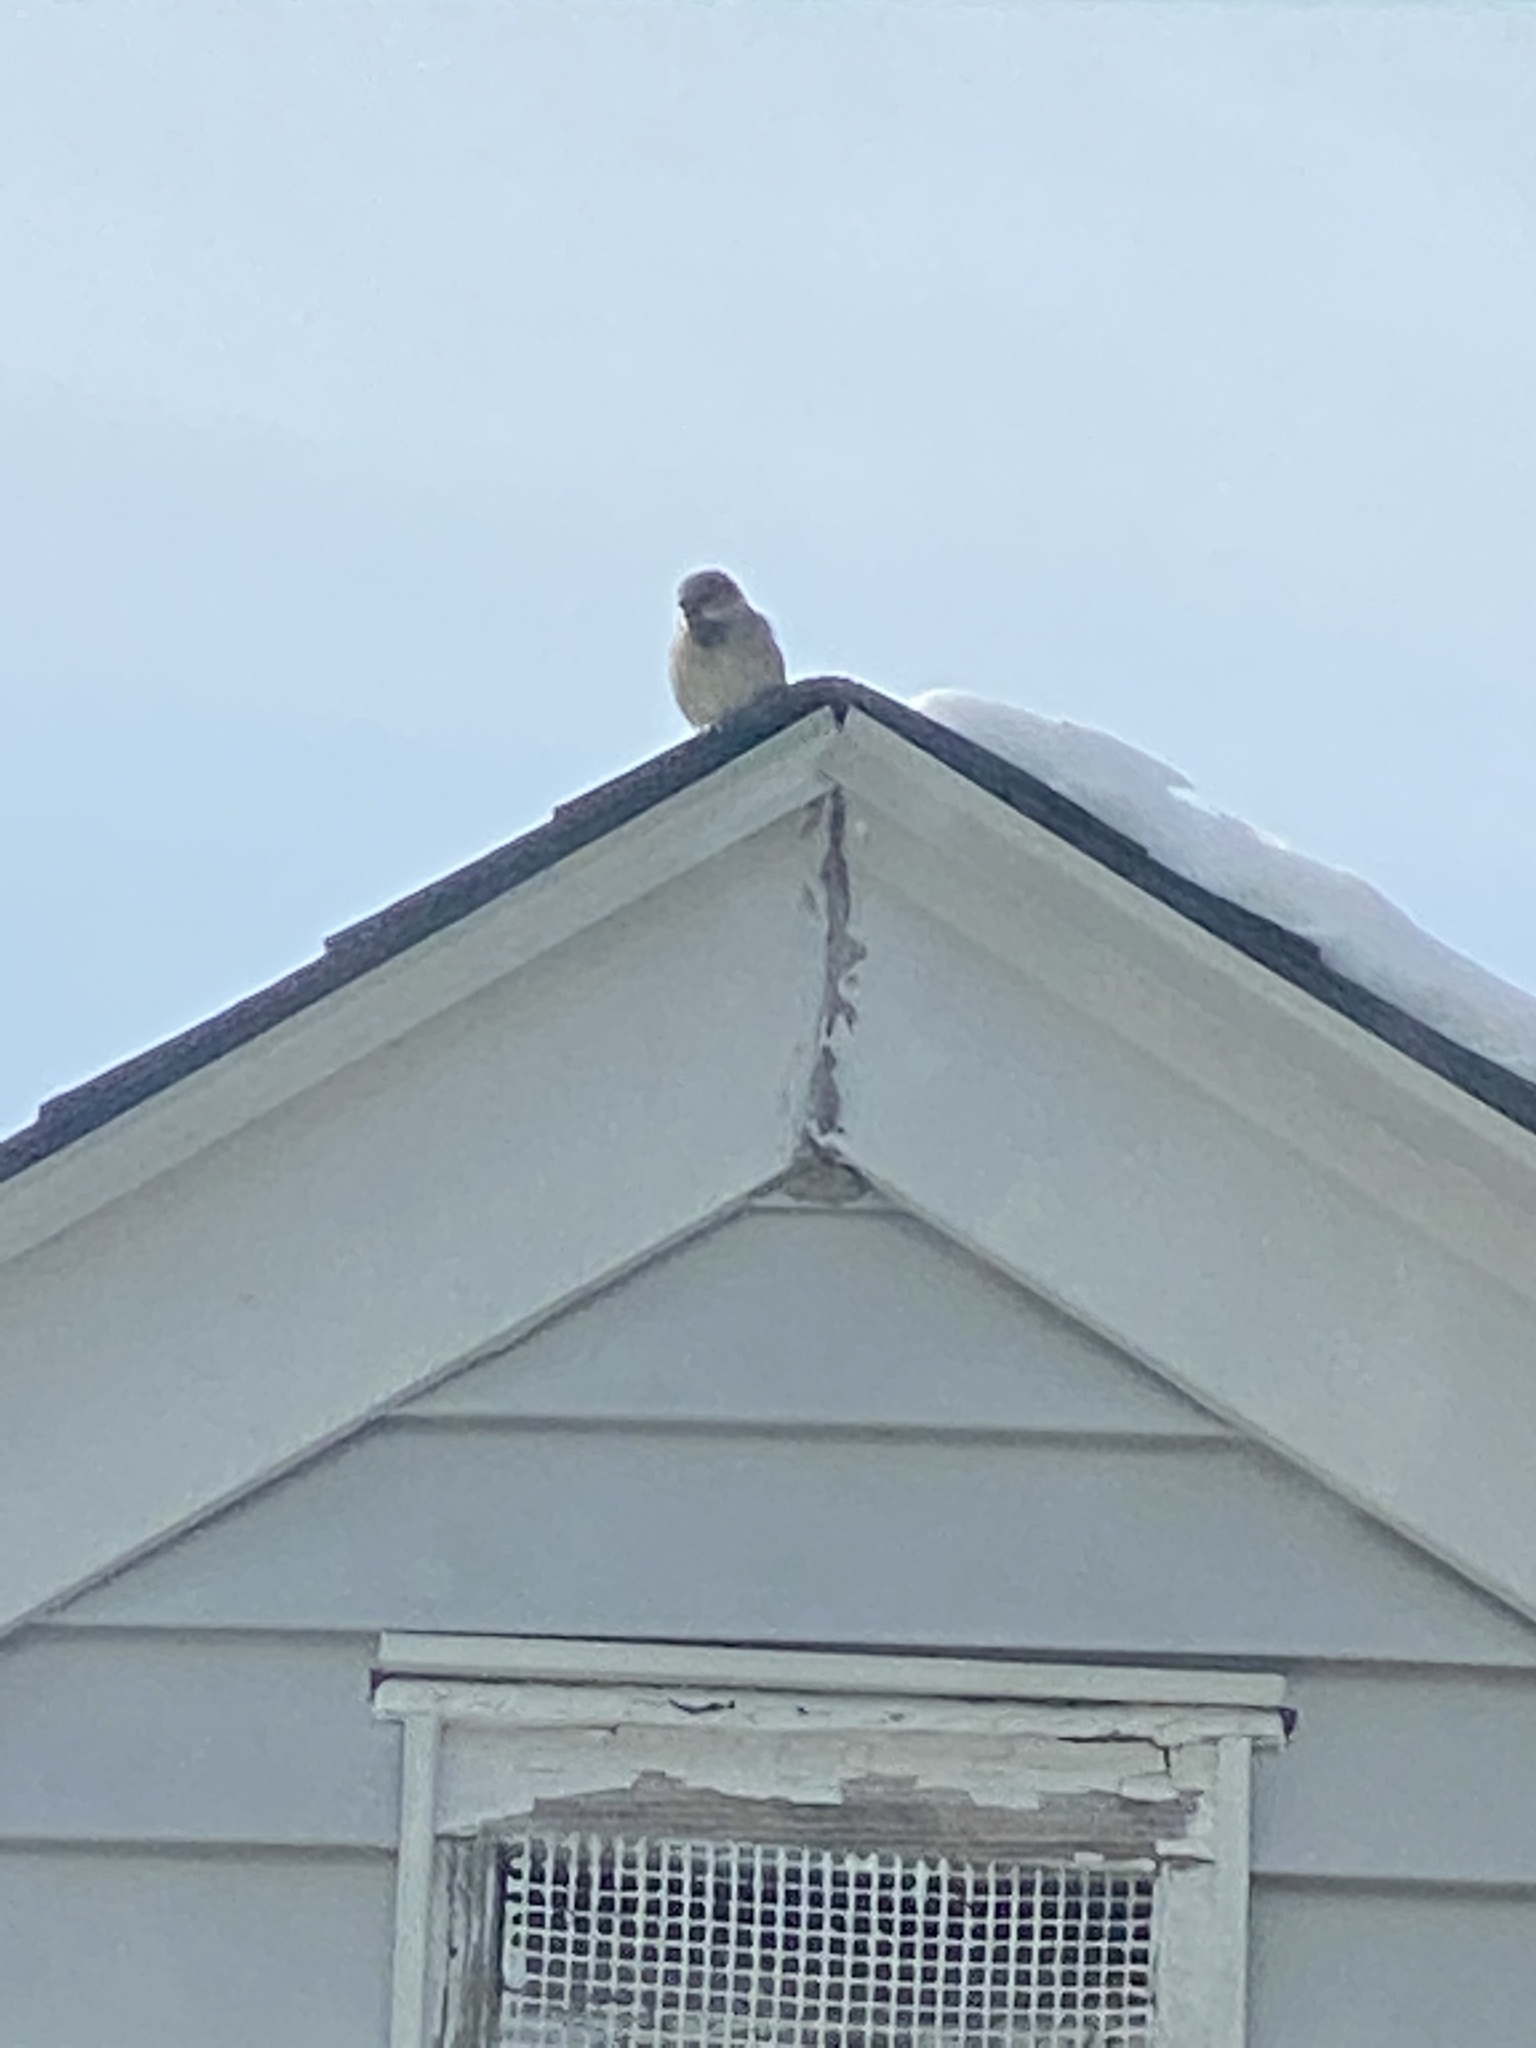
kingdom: Animalia
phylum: Chordata
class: Aves
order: Passeriformes
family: Passeridae
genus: Passer
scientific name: Passer domesticus
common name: House sparrow
